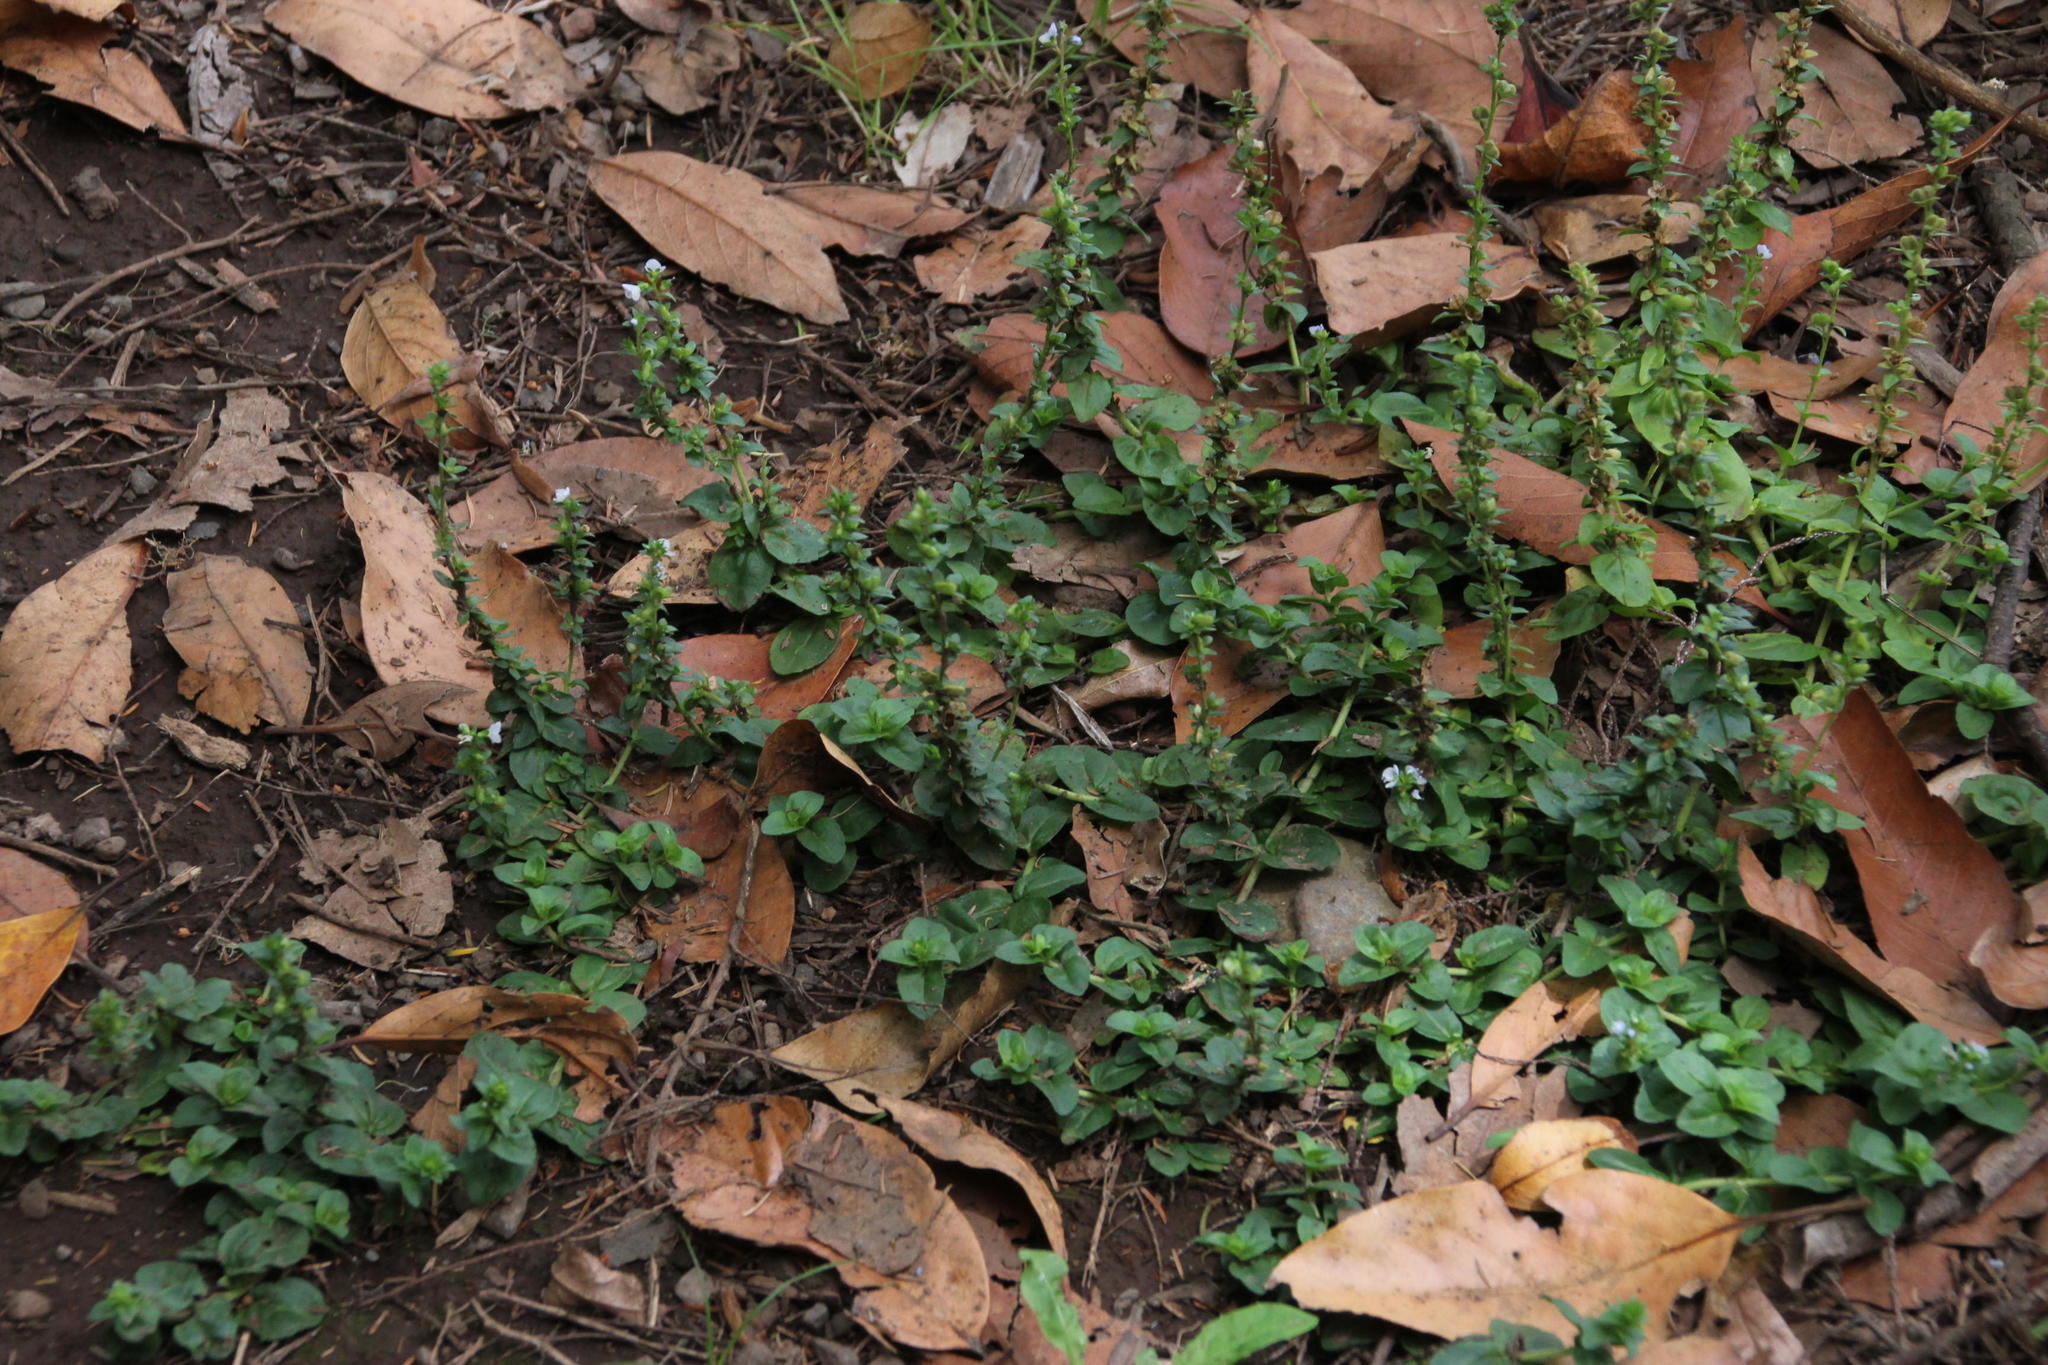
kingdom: Plantae
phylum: Tracheophyta
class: Magnoliopsida
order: Lamiales
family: Plantaginaceae
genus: Veronica
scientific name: Veronica serpyllifolia
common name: Thyme-leaved speedwell
